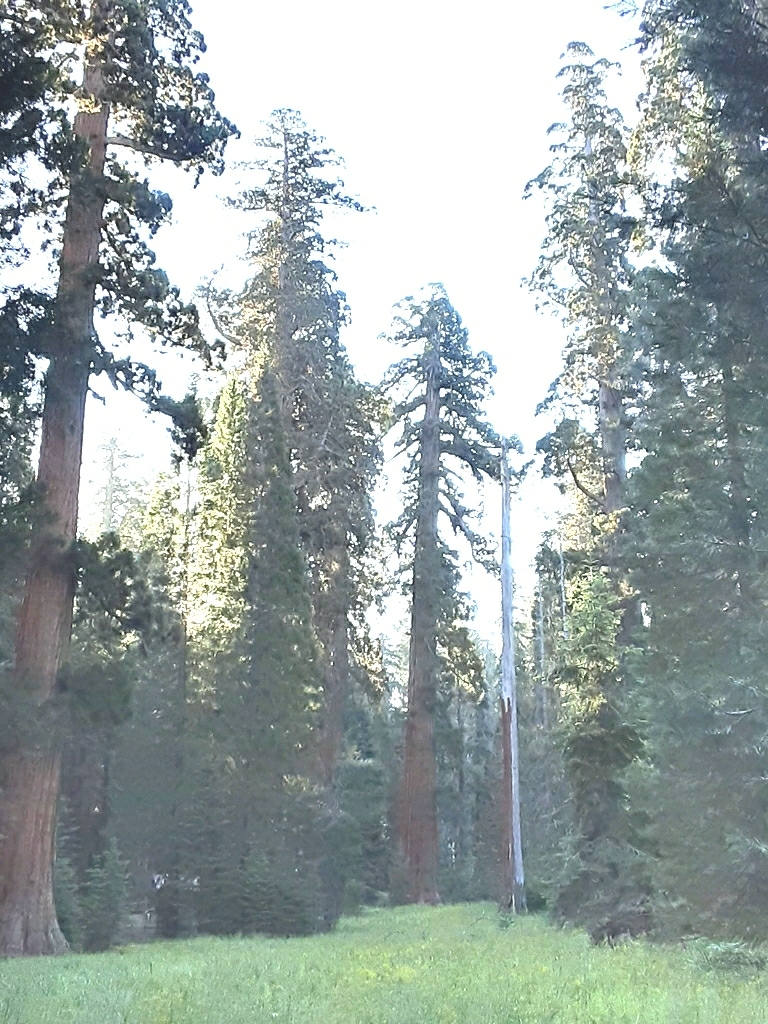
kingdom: Plantae
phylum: Tracheophyta
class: Pinopsida
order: Pinales
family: Cupressaceae
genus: Sequoiadendron
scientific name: Sequoiadendron giganteum
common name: Wellingtonia
